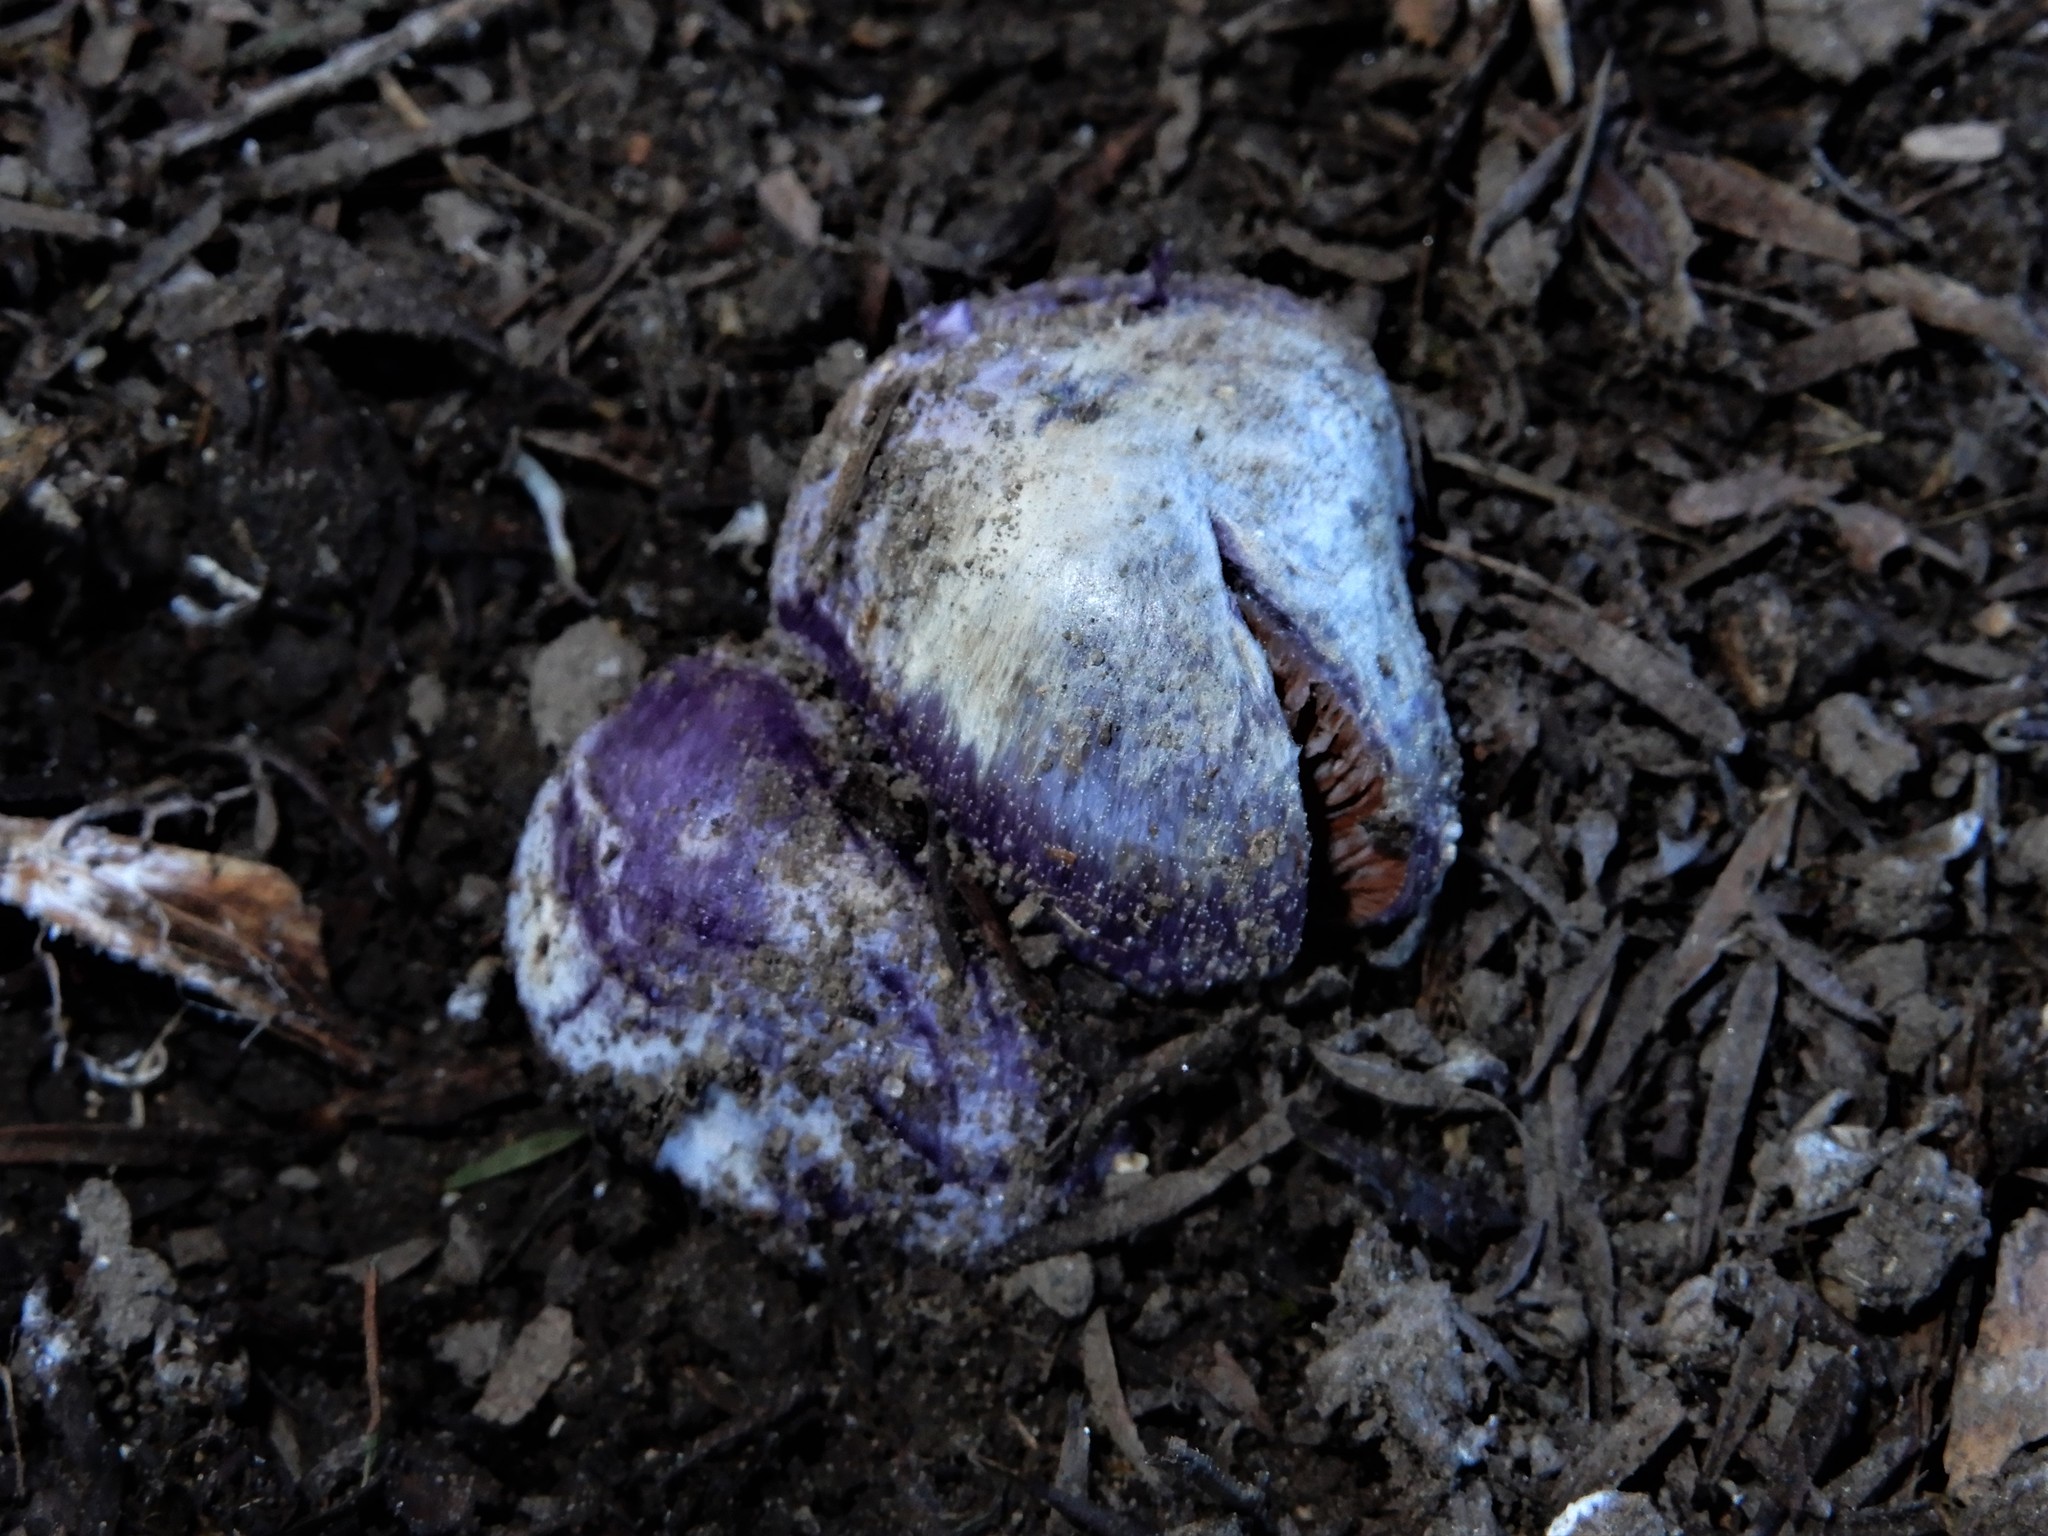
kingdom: Fungi
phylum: Basidiomycota
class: Agaricomycetes
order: Agaricales
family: Cortinariaceae
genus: Cortinarius
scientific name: Cortinarius coneae
